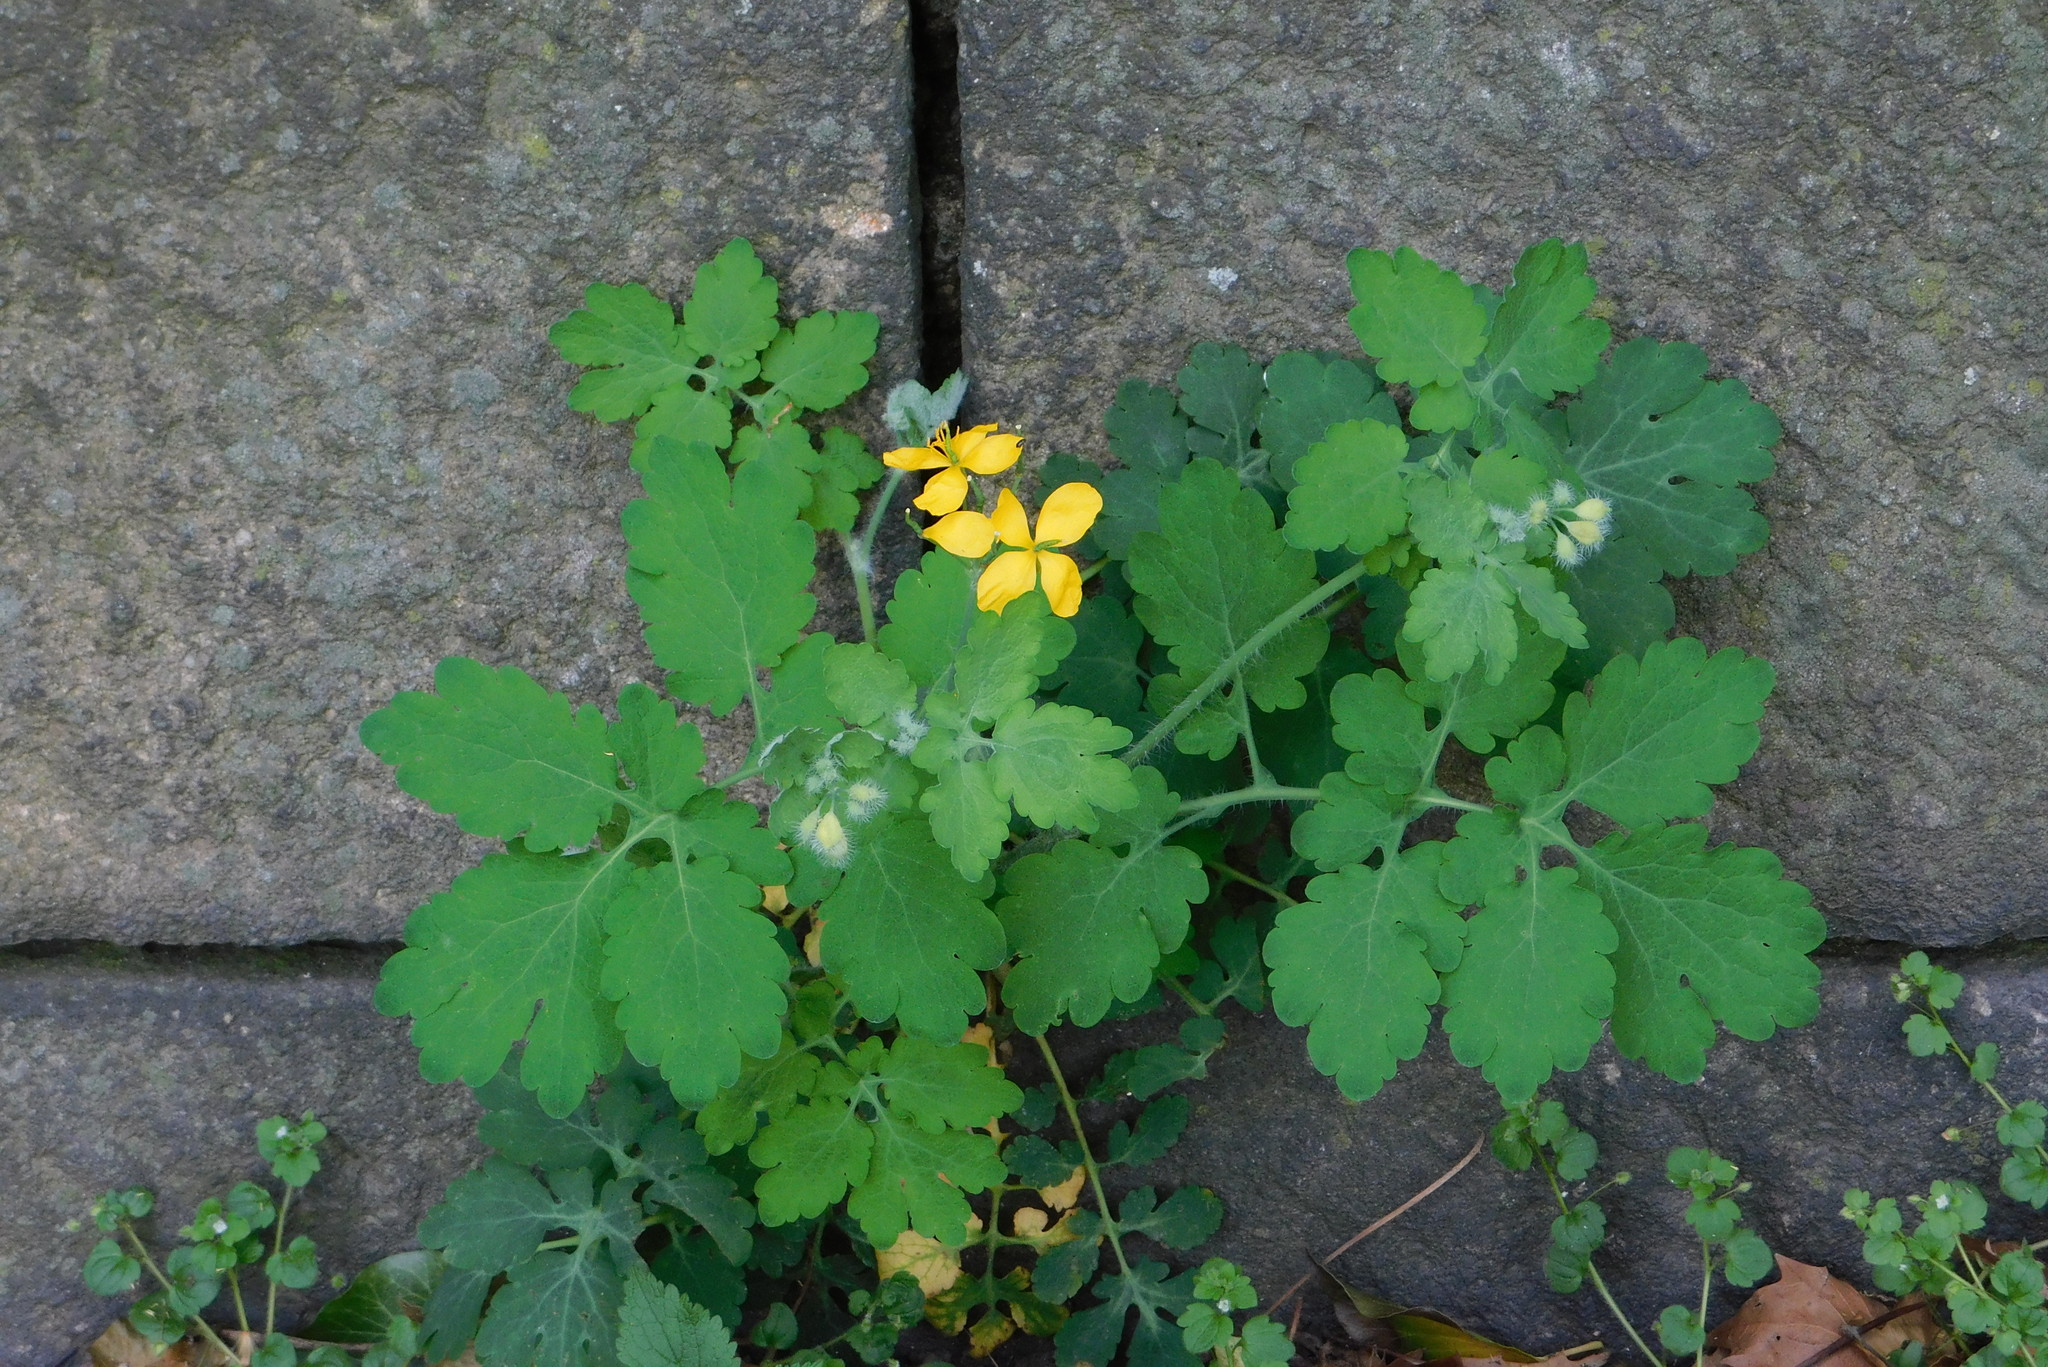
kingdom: Plantae
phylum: Tracheophyta
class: Magnoliopsida
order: Ranunculales
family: Papaveraceae
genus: Chelidonium
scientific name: Chelidonium majus
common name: Greater celandine
